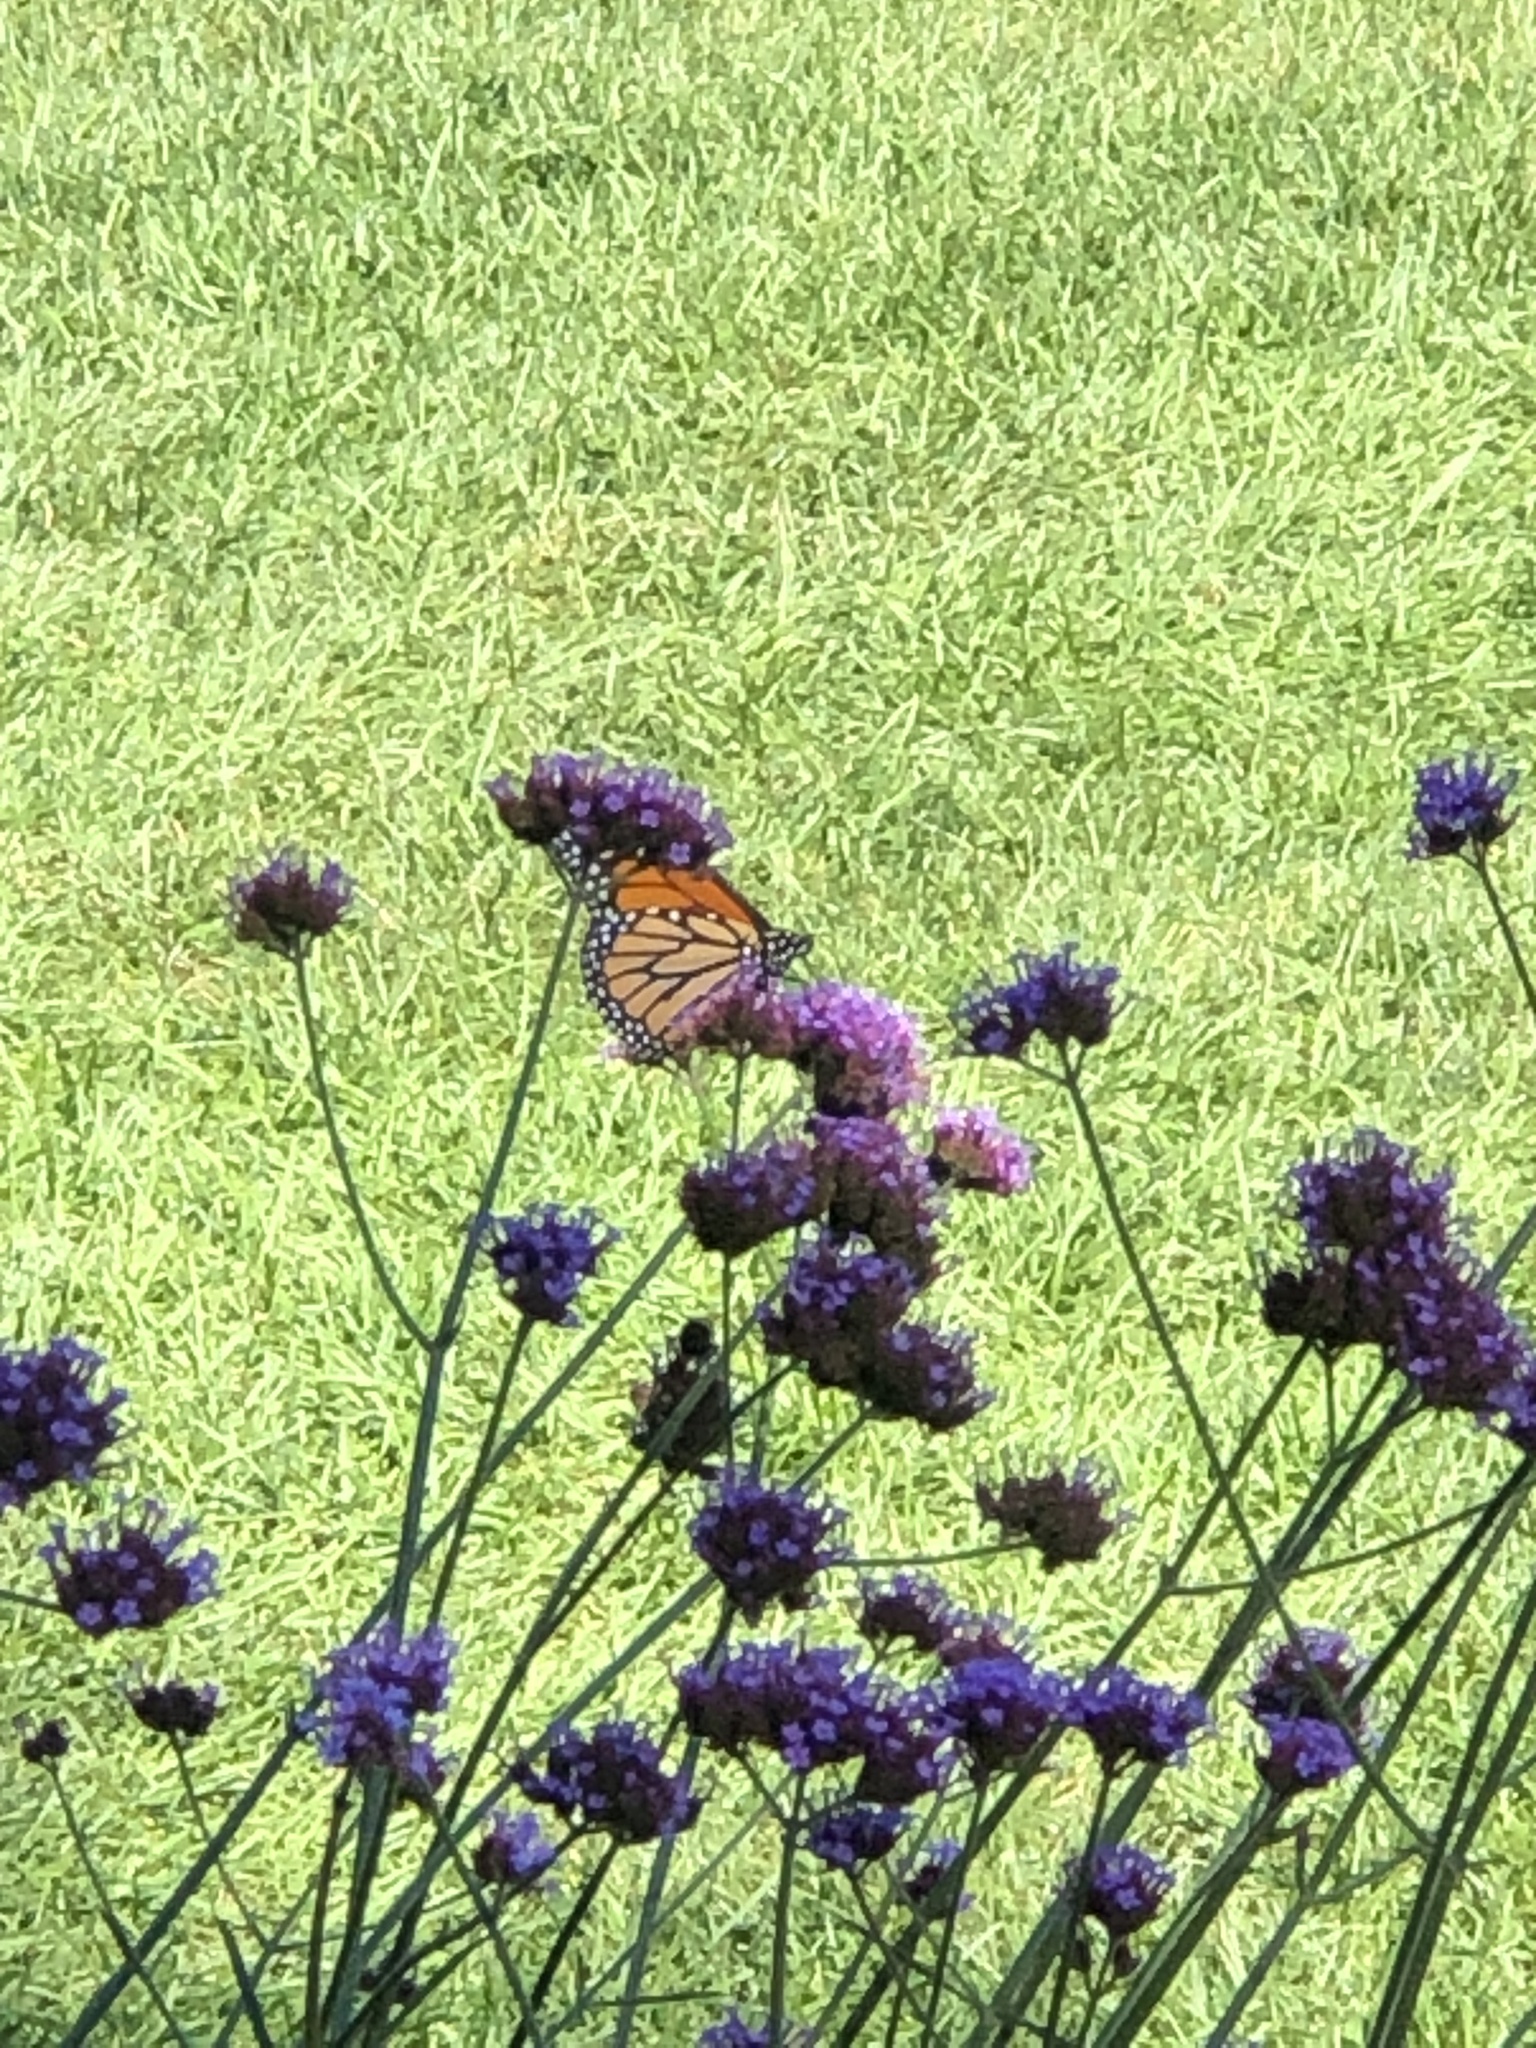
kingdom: Animalia
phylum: Arthropoda
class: Insecta
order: Lepidoptera
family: Nymphalidae
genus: Danaus
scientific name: Danaus plexippus
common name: Monarch
